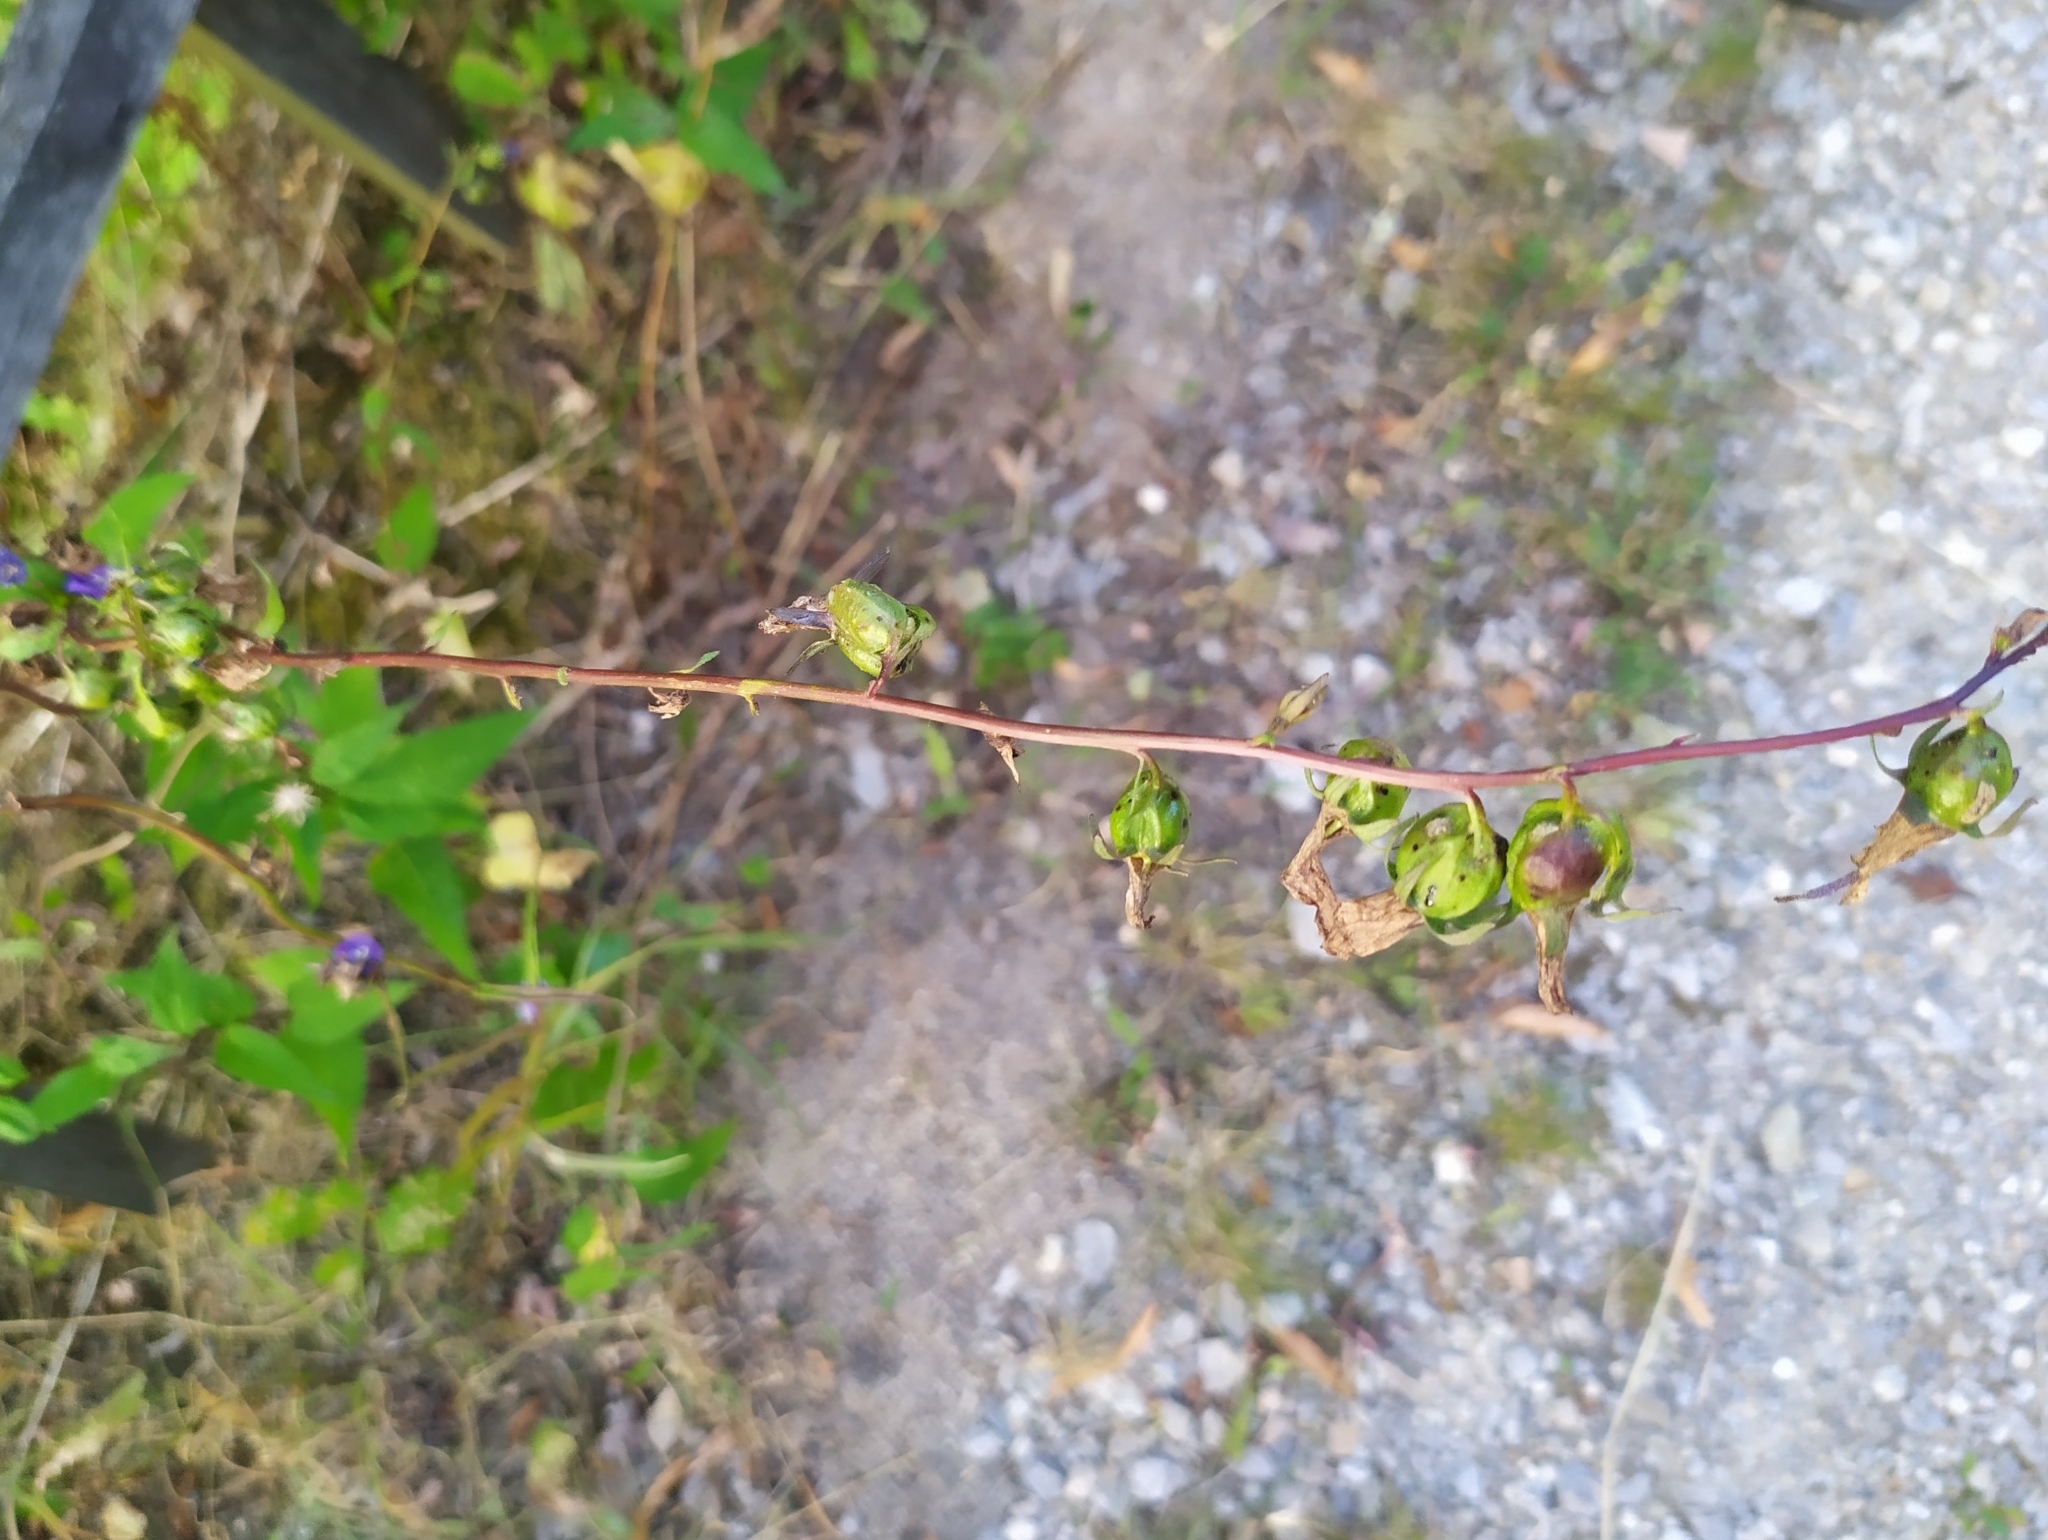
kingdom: Plantae
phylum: Tracheophyta
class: Magnoliopsida
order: Asterales
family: Campanulaceae
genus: Campanula
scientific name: Campanula rapunculoides
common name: Creeping bellflower
